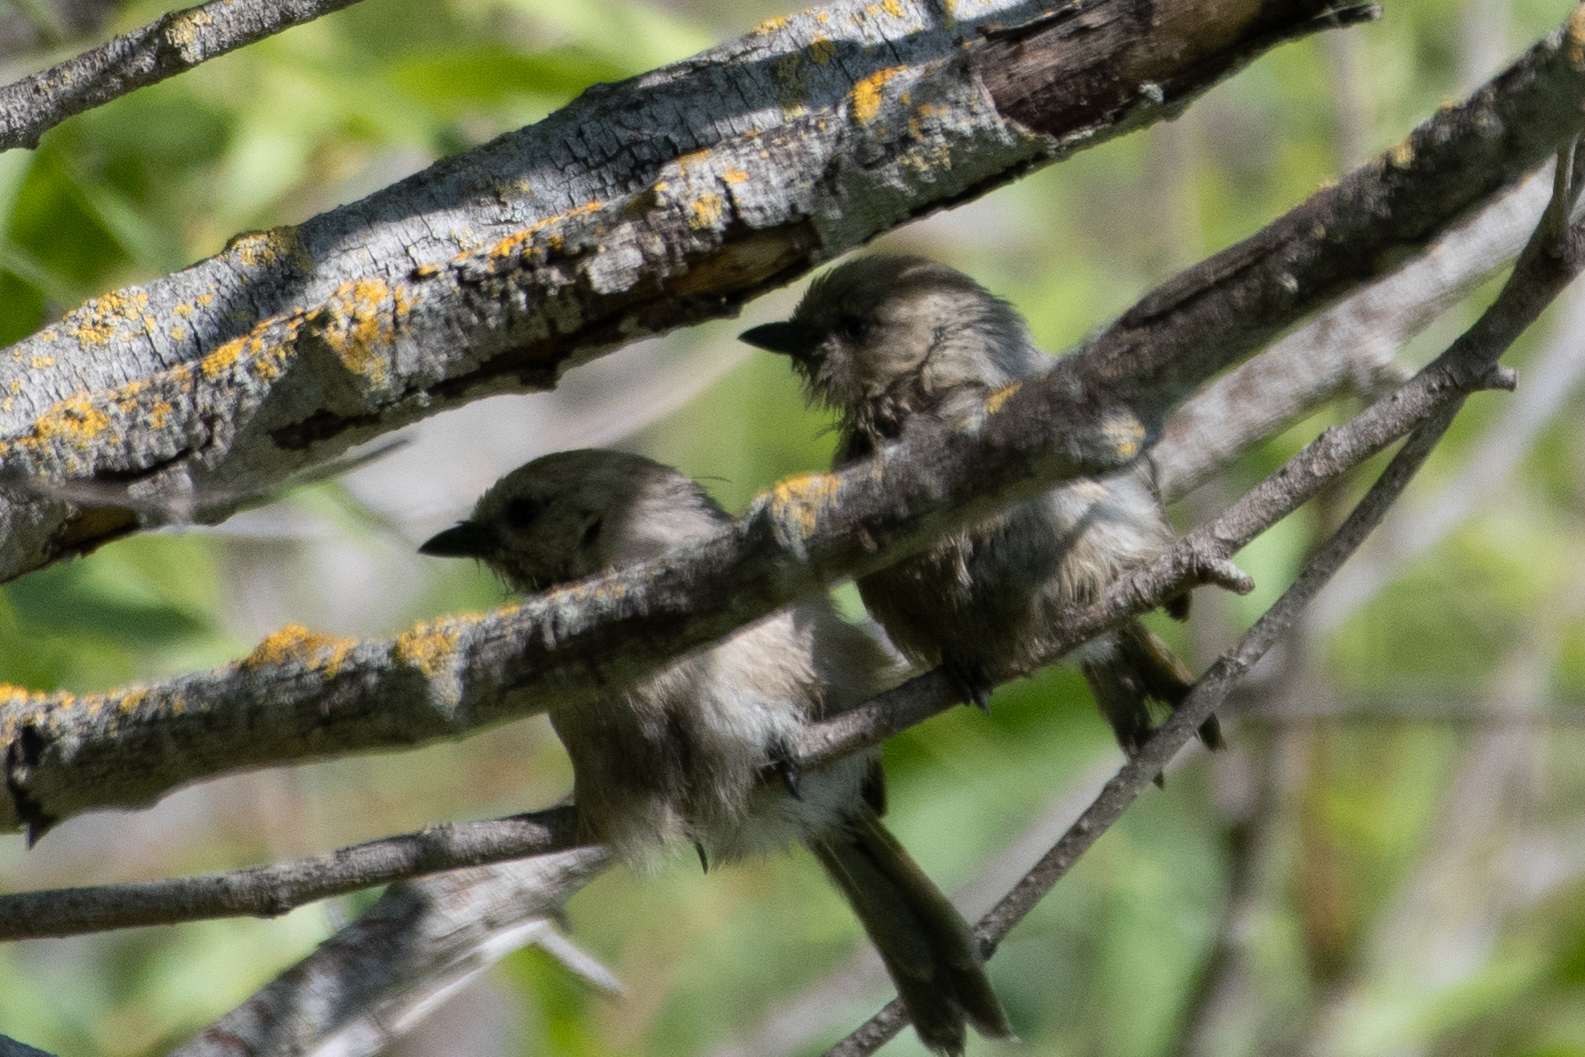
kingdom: Animalia
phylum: Chordata
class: Aves
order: Passeriformes
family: Aegithalidae
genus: Psaltriparus
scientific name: Psaltriparus minimus
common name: American bushtit
